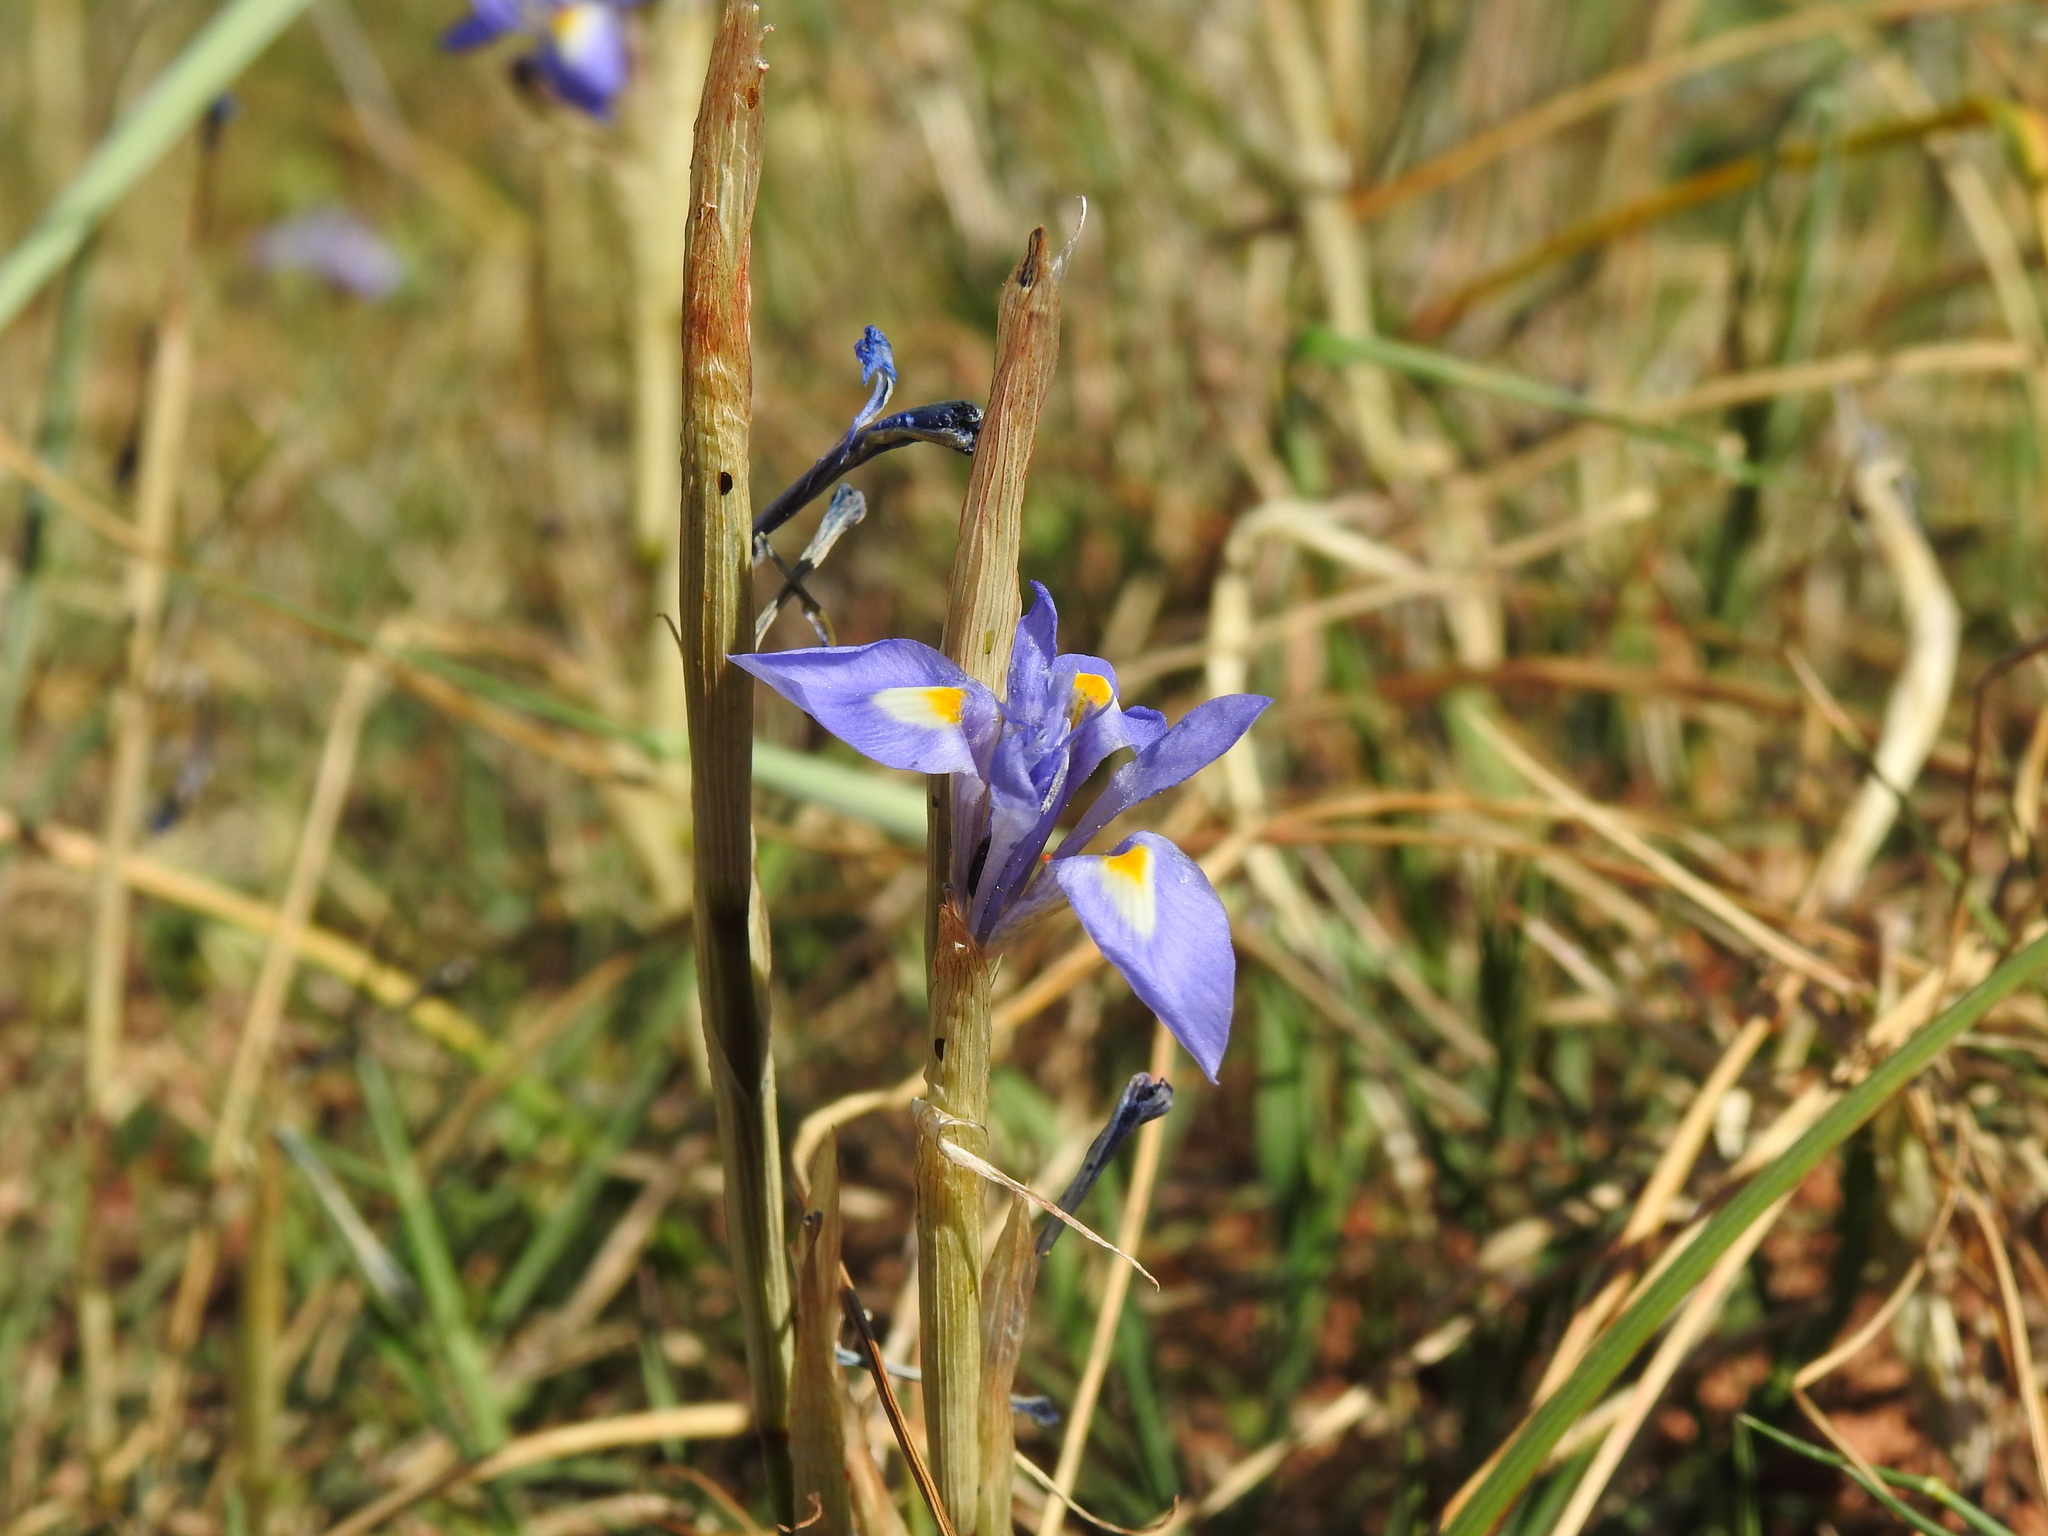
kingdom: Plantae
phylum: Tracheophyta
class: Liliopsida
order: Asparagales
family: Iridaceae
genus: Moraea
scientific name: Moraea sisyrinchium
